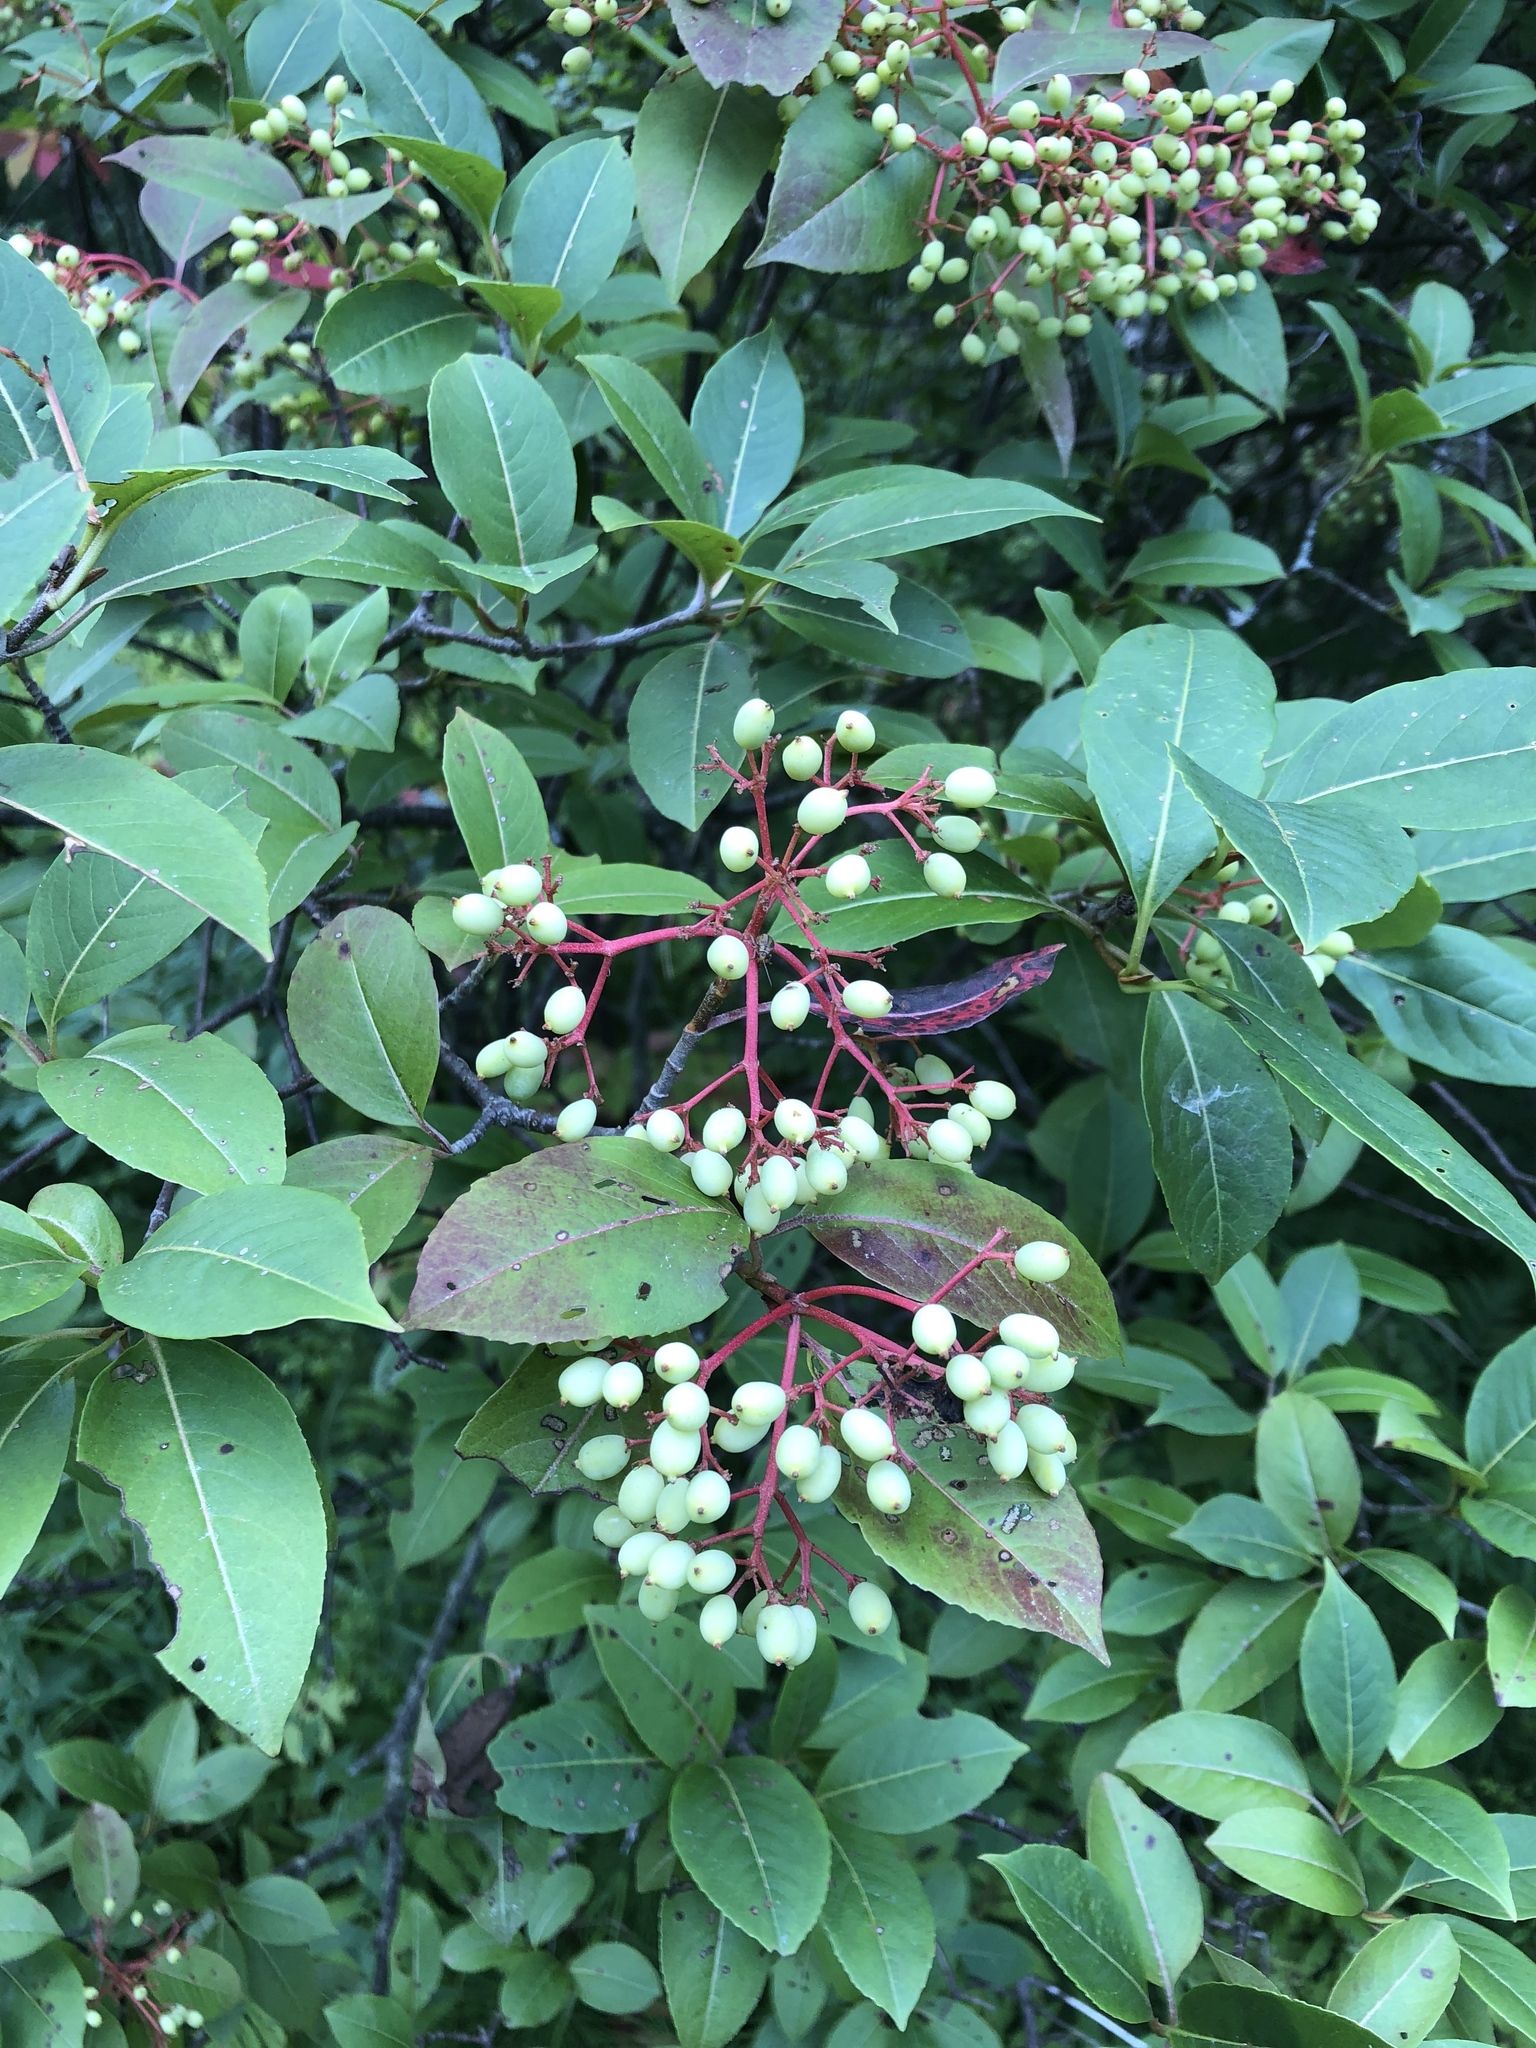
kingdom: Plantae
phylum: Tracheophyta
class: Magnoliopsida
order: Dipsacales
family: Viburnaceae
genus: Viburnum
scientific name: Viburnum cassinoides
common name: Swamp haw
